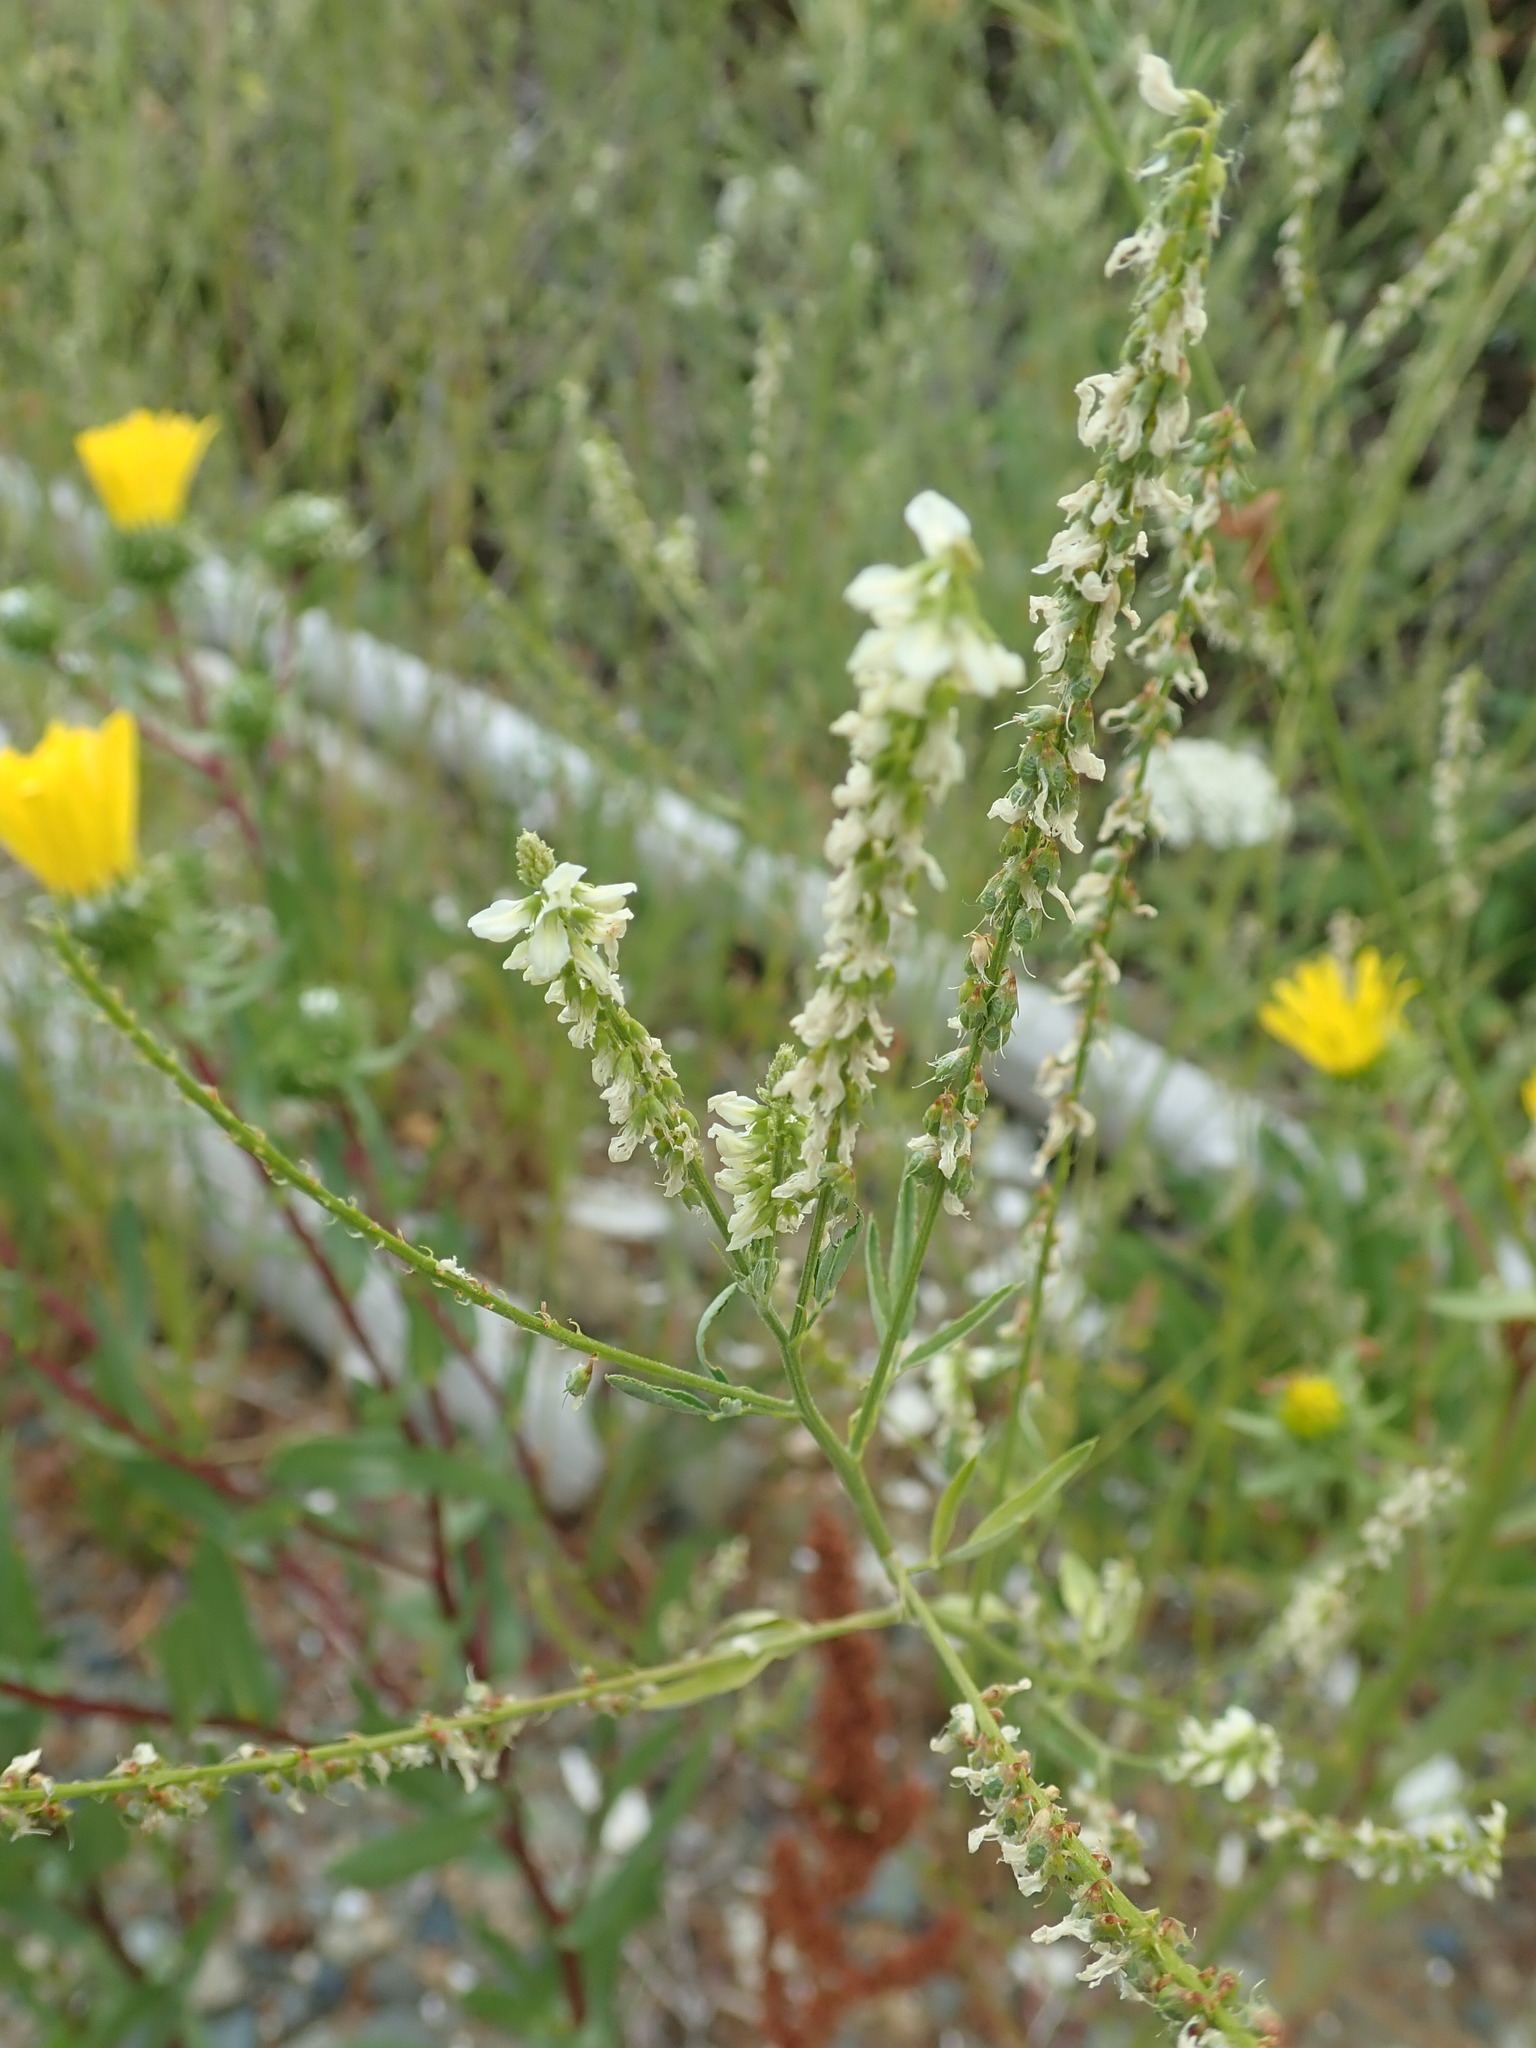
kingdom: Plantae
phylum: Tracheophyta
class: Magnoliopsida
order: Fabales
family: Fabaceae
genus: Melilotus
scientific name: Melilotus albus
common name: White melilot
